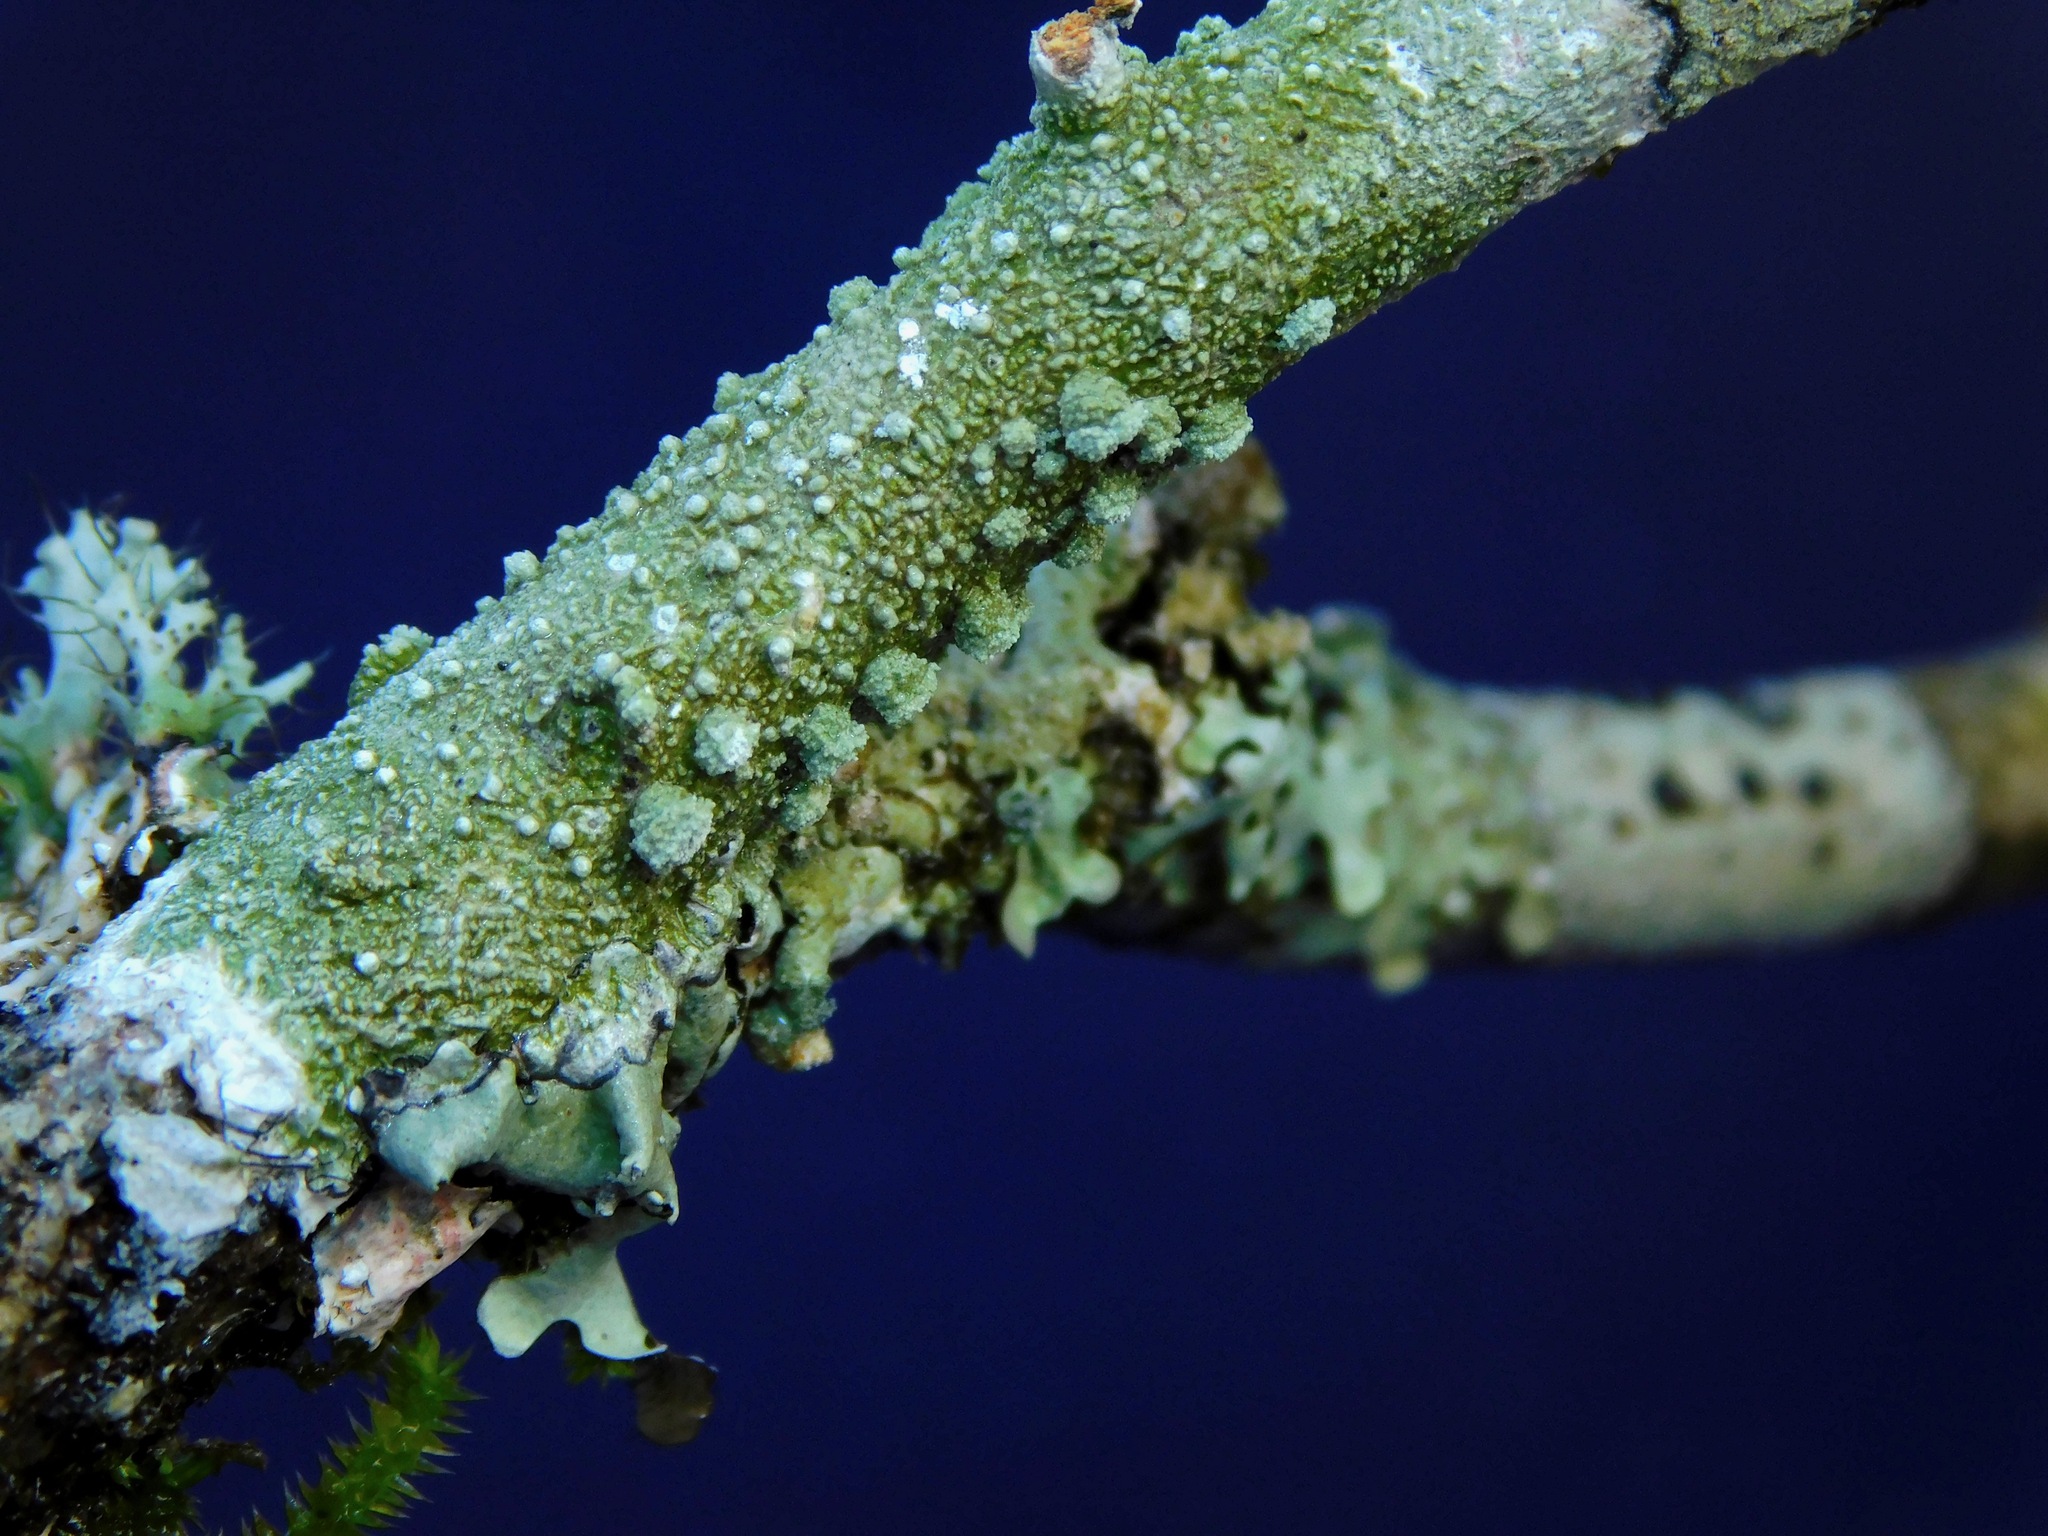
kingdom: Fungi
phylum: Ascomycota
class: Lecanoromycetes
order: Pertusariales
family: Pertusariaceae
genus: Lepra
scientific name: Lepra amara
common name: Bitter wart lichen
